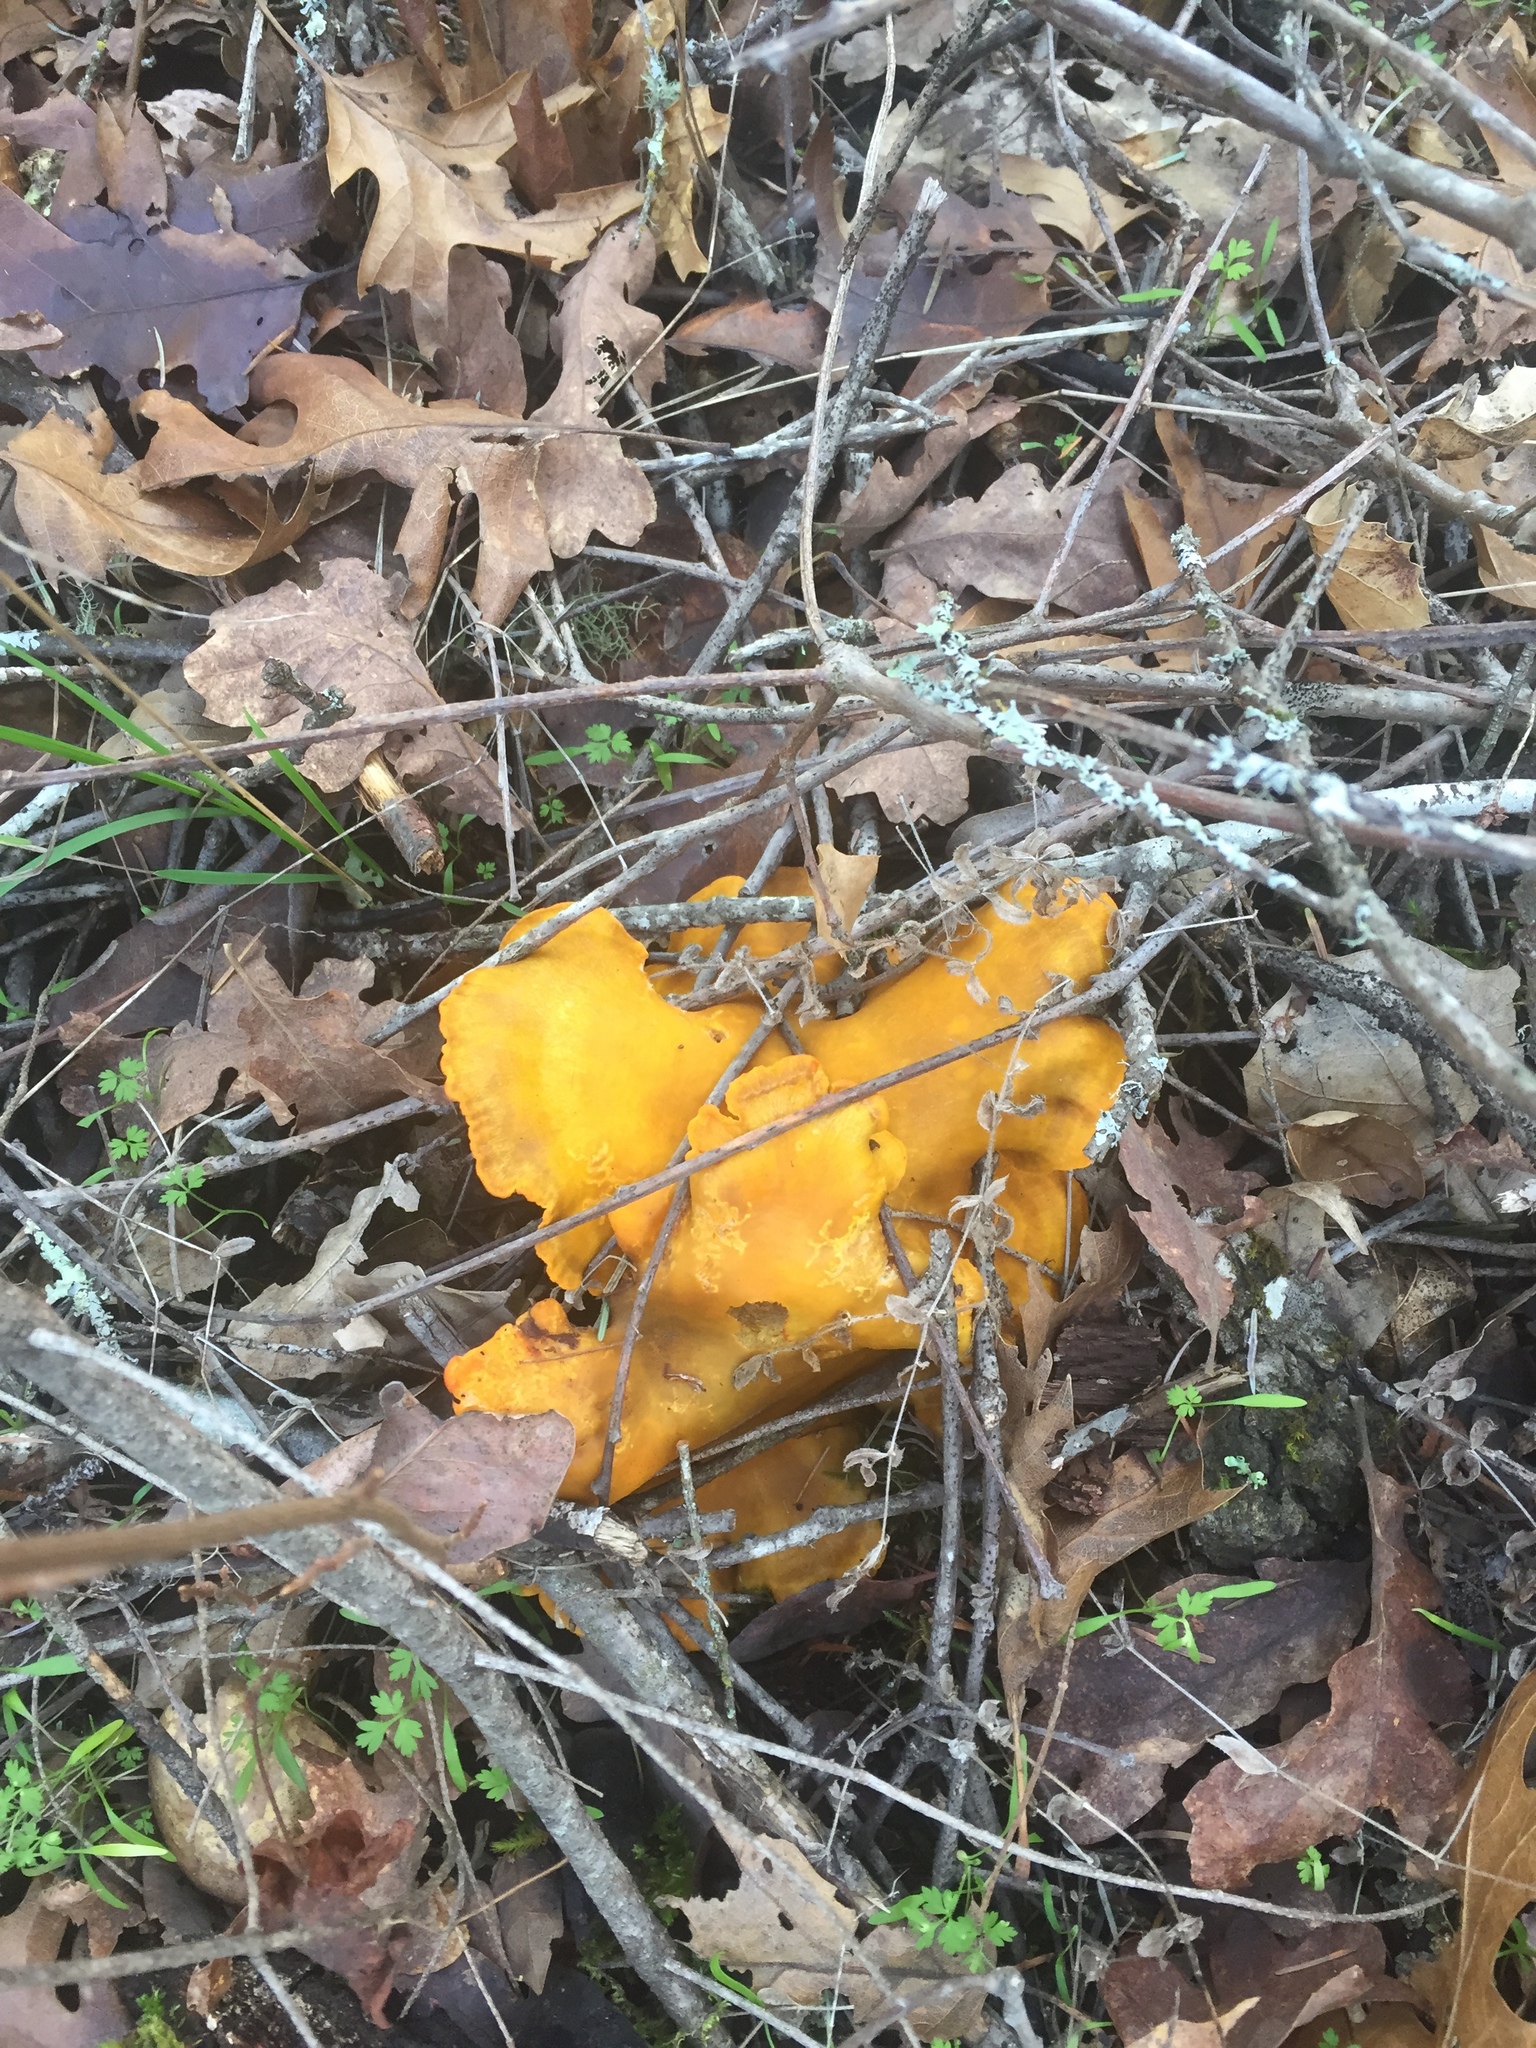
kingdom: Fungi
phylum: Basidiomycota
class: Agaricomycetes
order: Agaricales
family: Omphalotaceae
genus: Omphalotus
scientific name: Omphalotus olivascens
